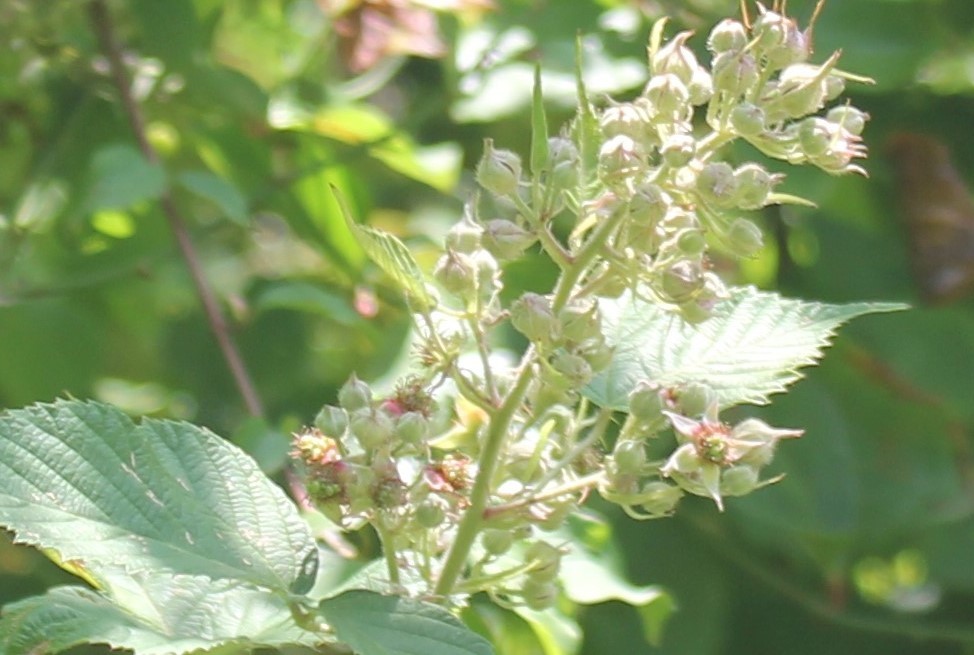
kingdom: Plantae
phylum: Tracheophyta
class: Magnoliopsida
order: Rosales
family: Rosaceae
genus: Rubus
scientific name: Rubus
